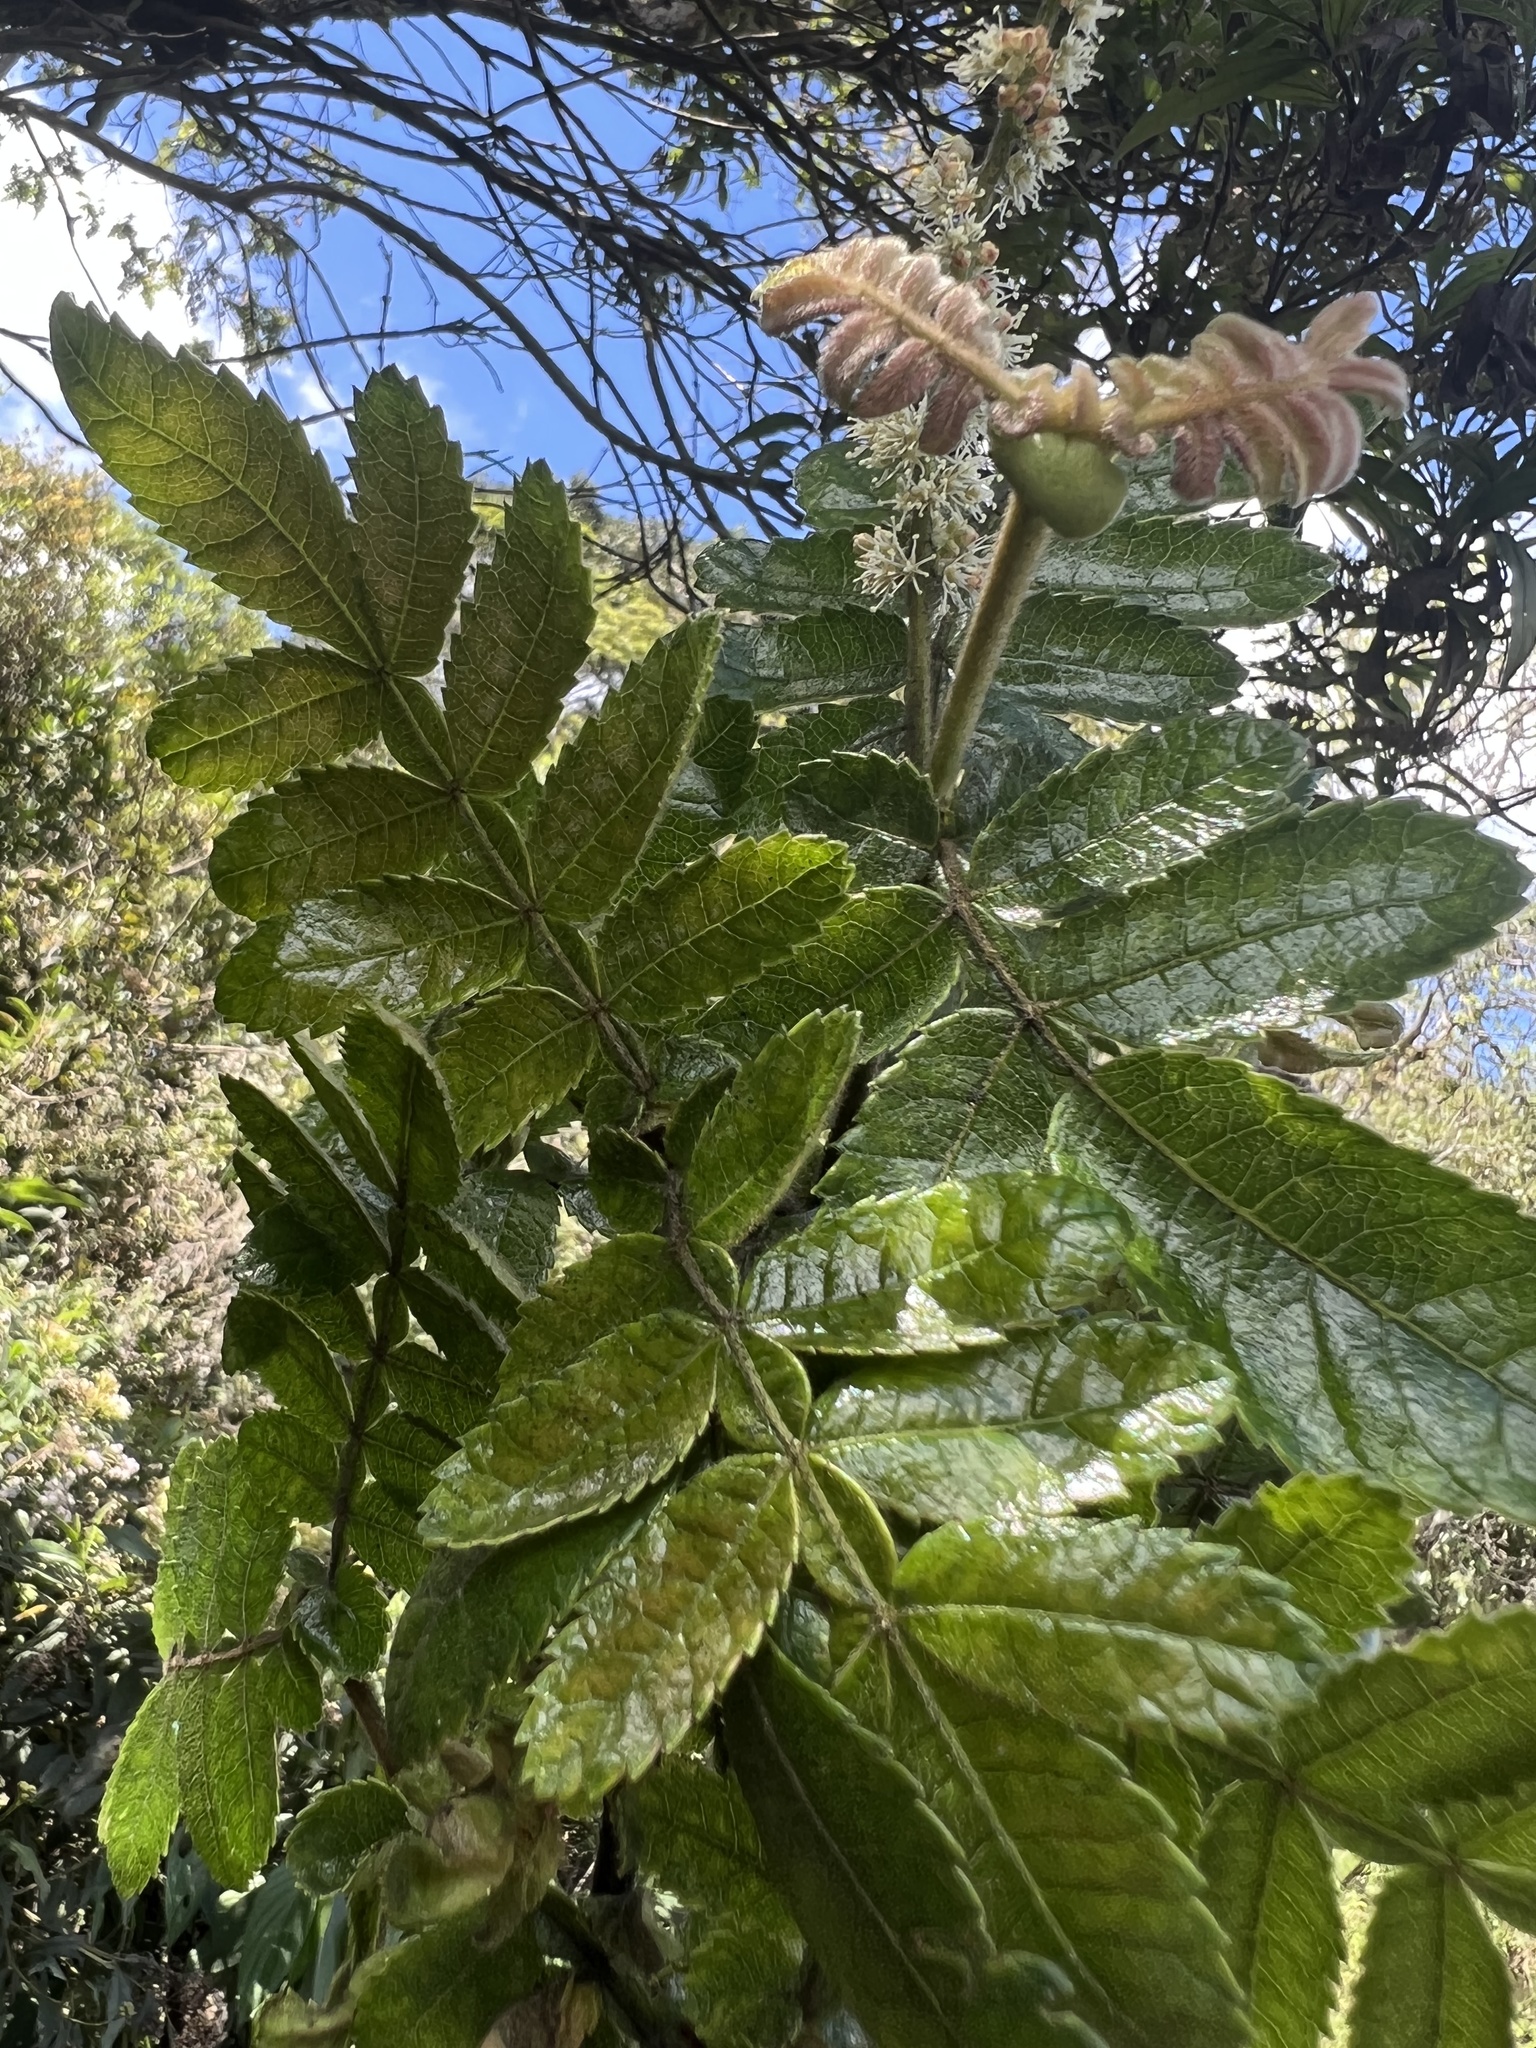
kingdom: Plantae
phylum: Tracheophyta
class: Magnoliopsida
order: Oxalidales
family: Cunoniaceae
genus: Weinmannia
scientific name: Weinmannia pubescens
